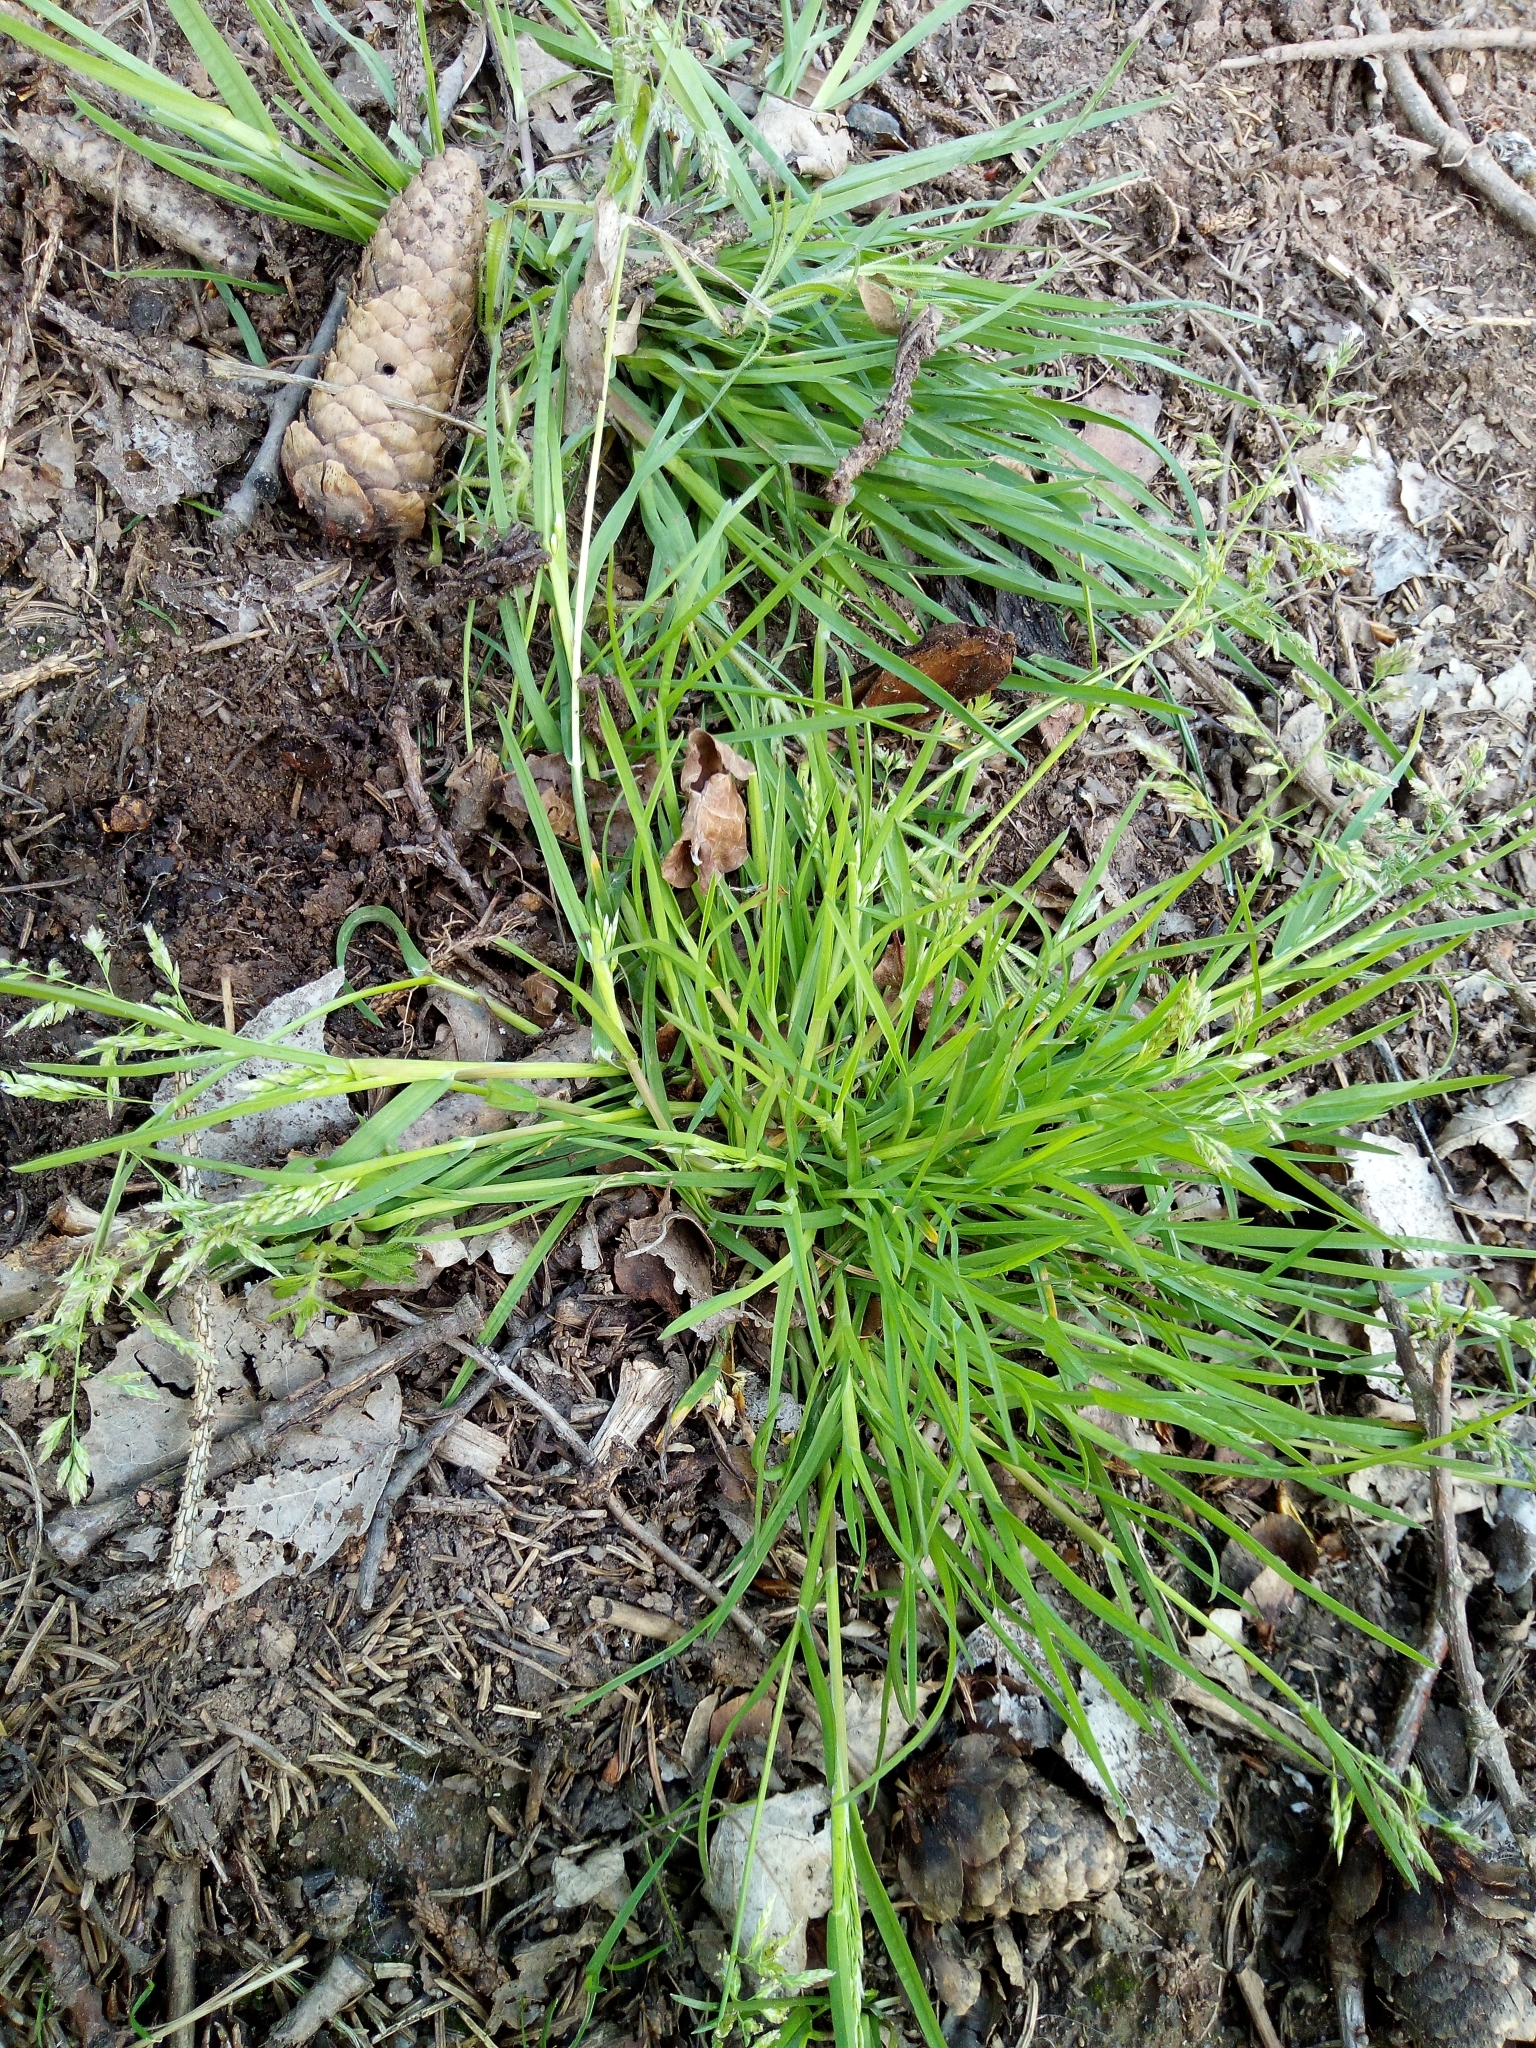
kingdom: Plantae
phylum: Tracheophyta
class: Liliopsida
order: Poales
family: Poaceae
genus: Poa
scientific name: Poa annua
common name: Annual bluegrass
